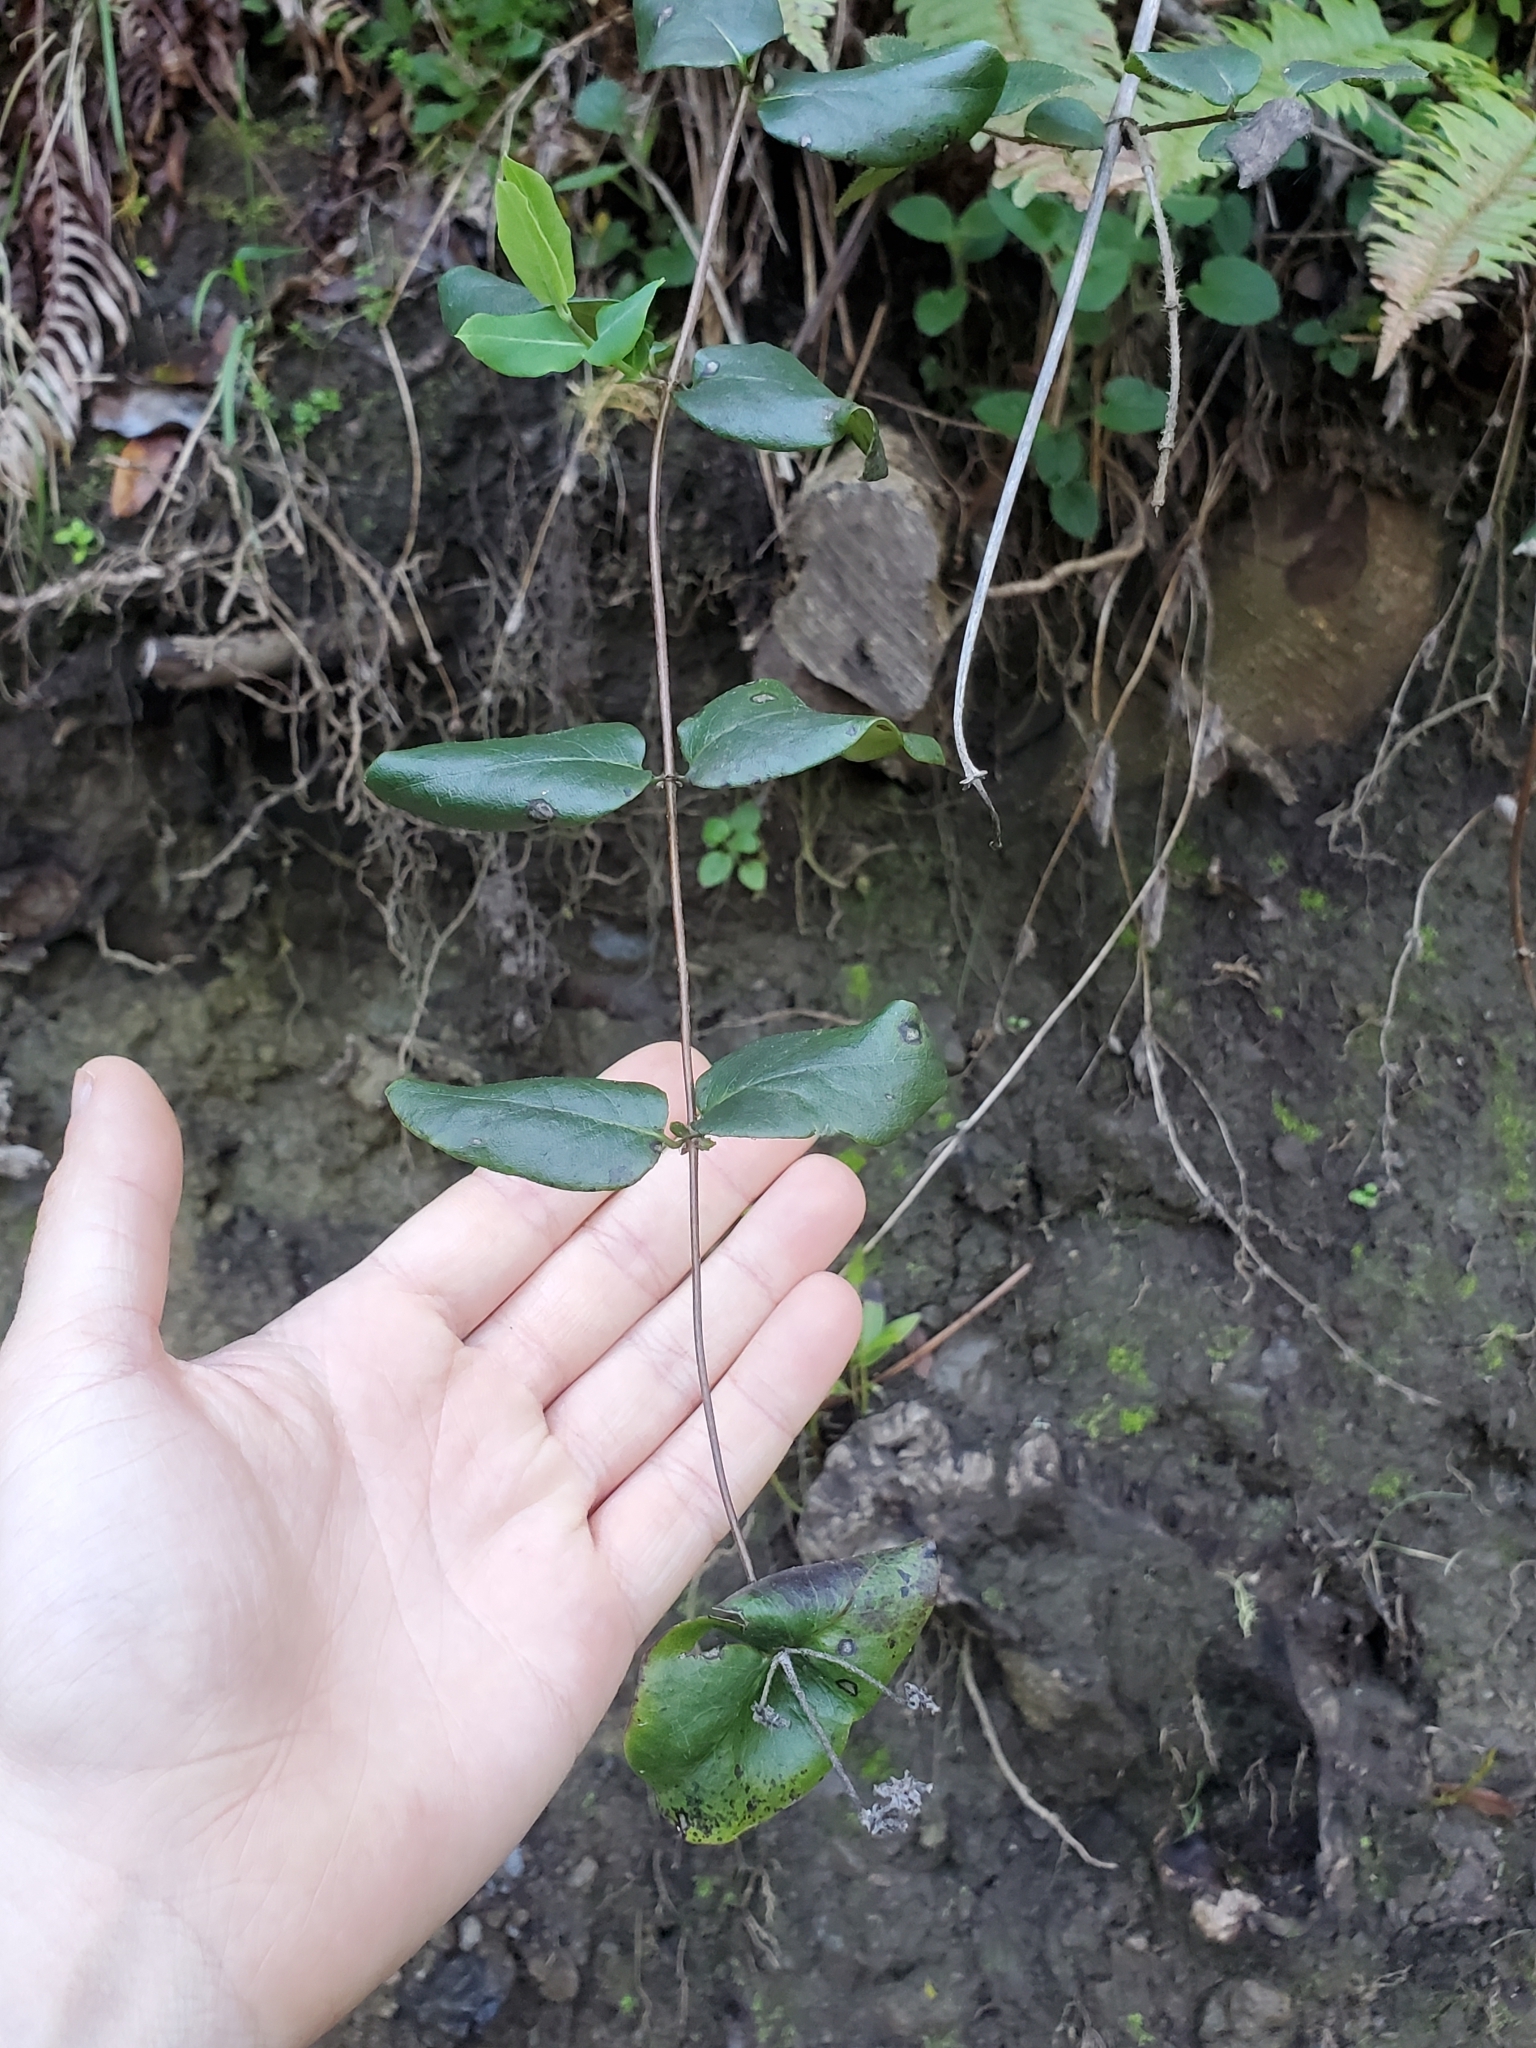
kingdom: Plantae
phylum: Tracheophyta
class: Magnoliopsida
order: Dipsacales
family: Caprifoliaceae
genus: Lonicera
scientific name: Lonicera hispidula
